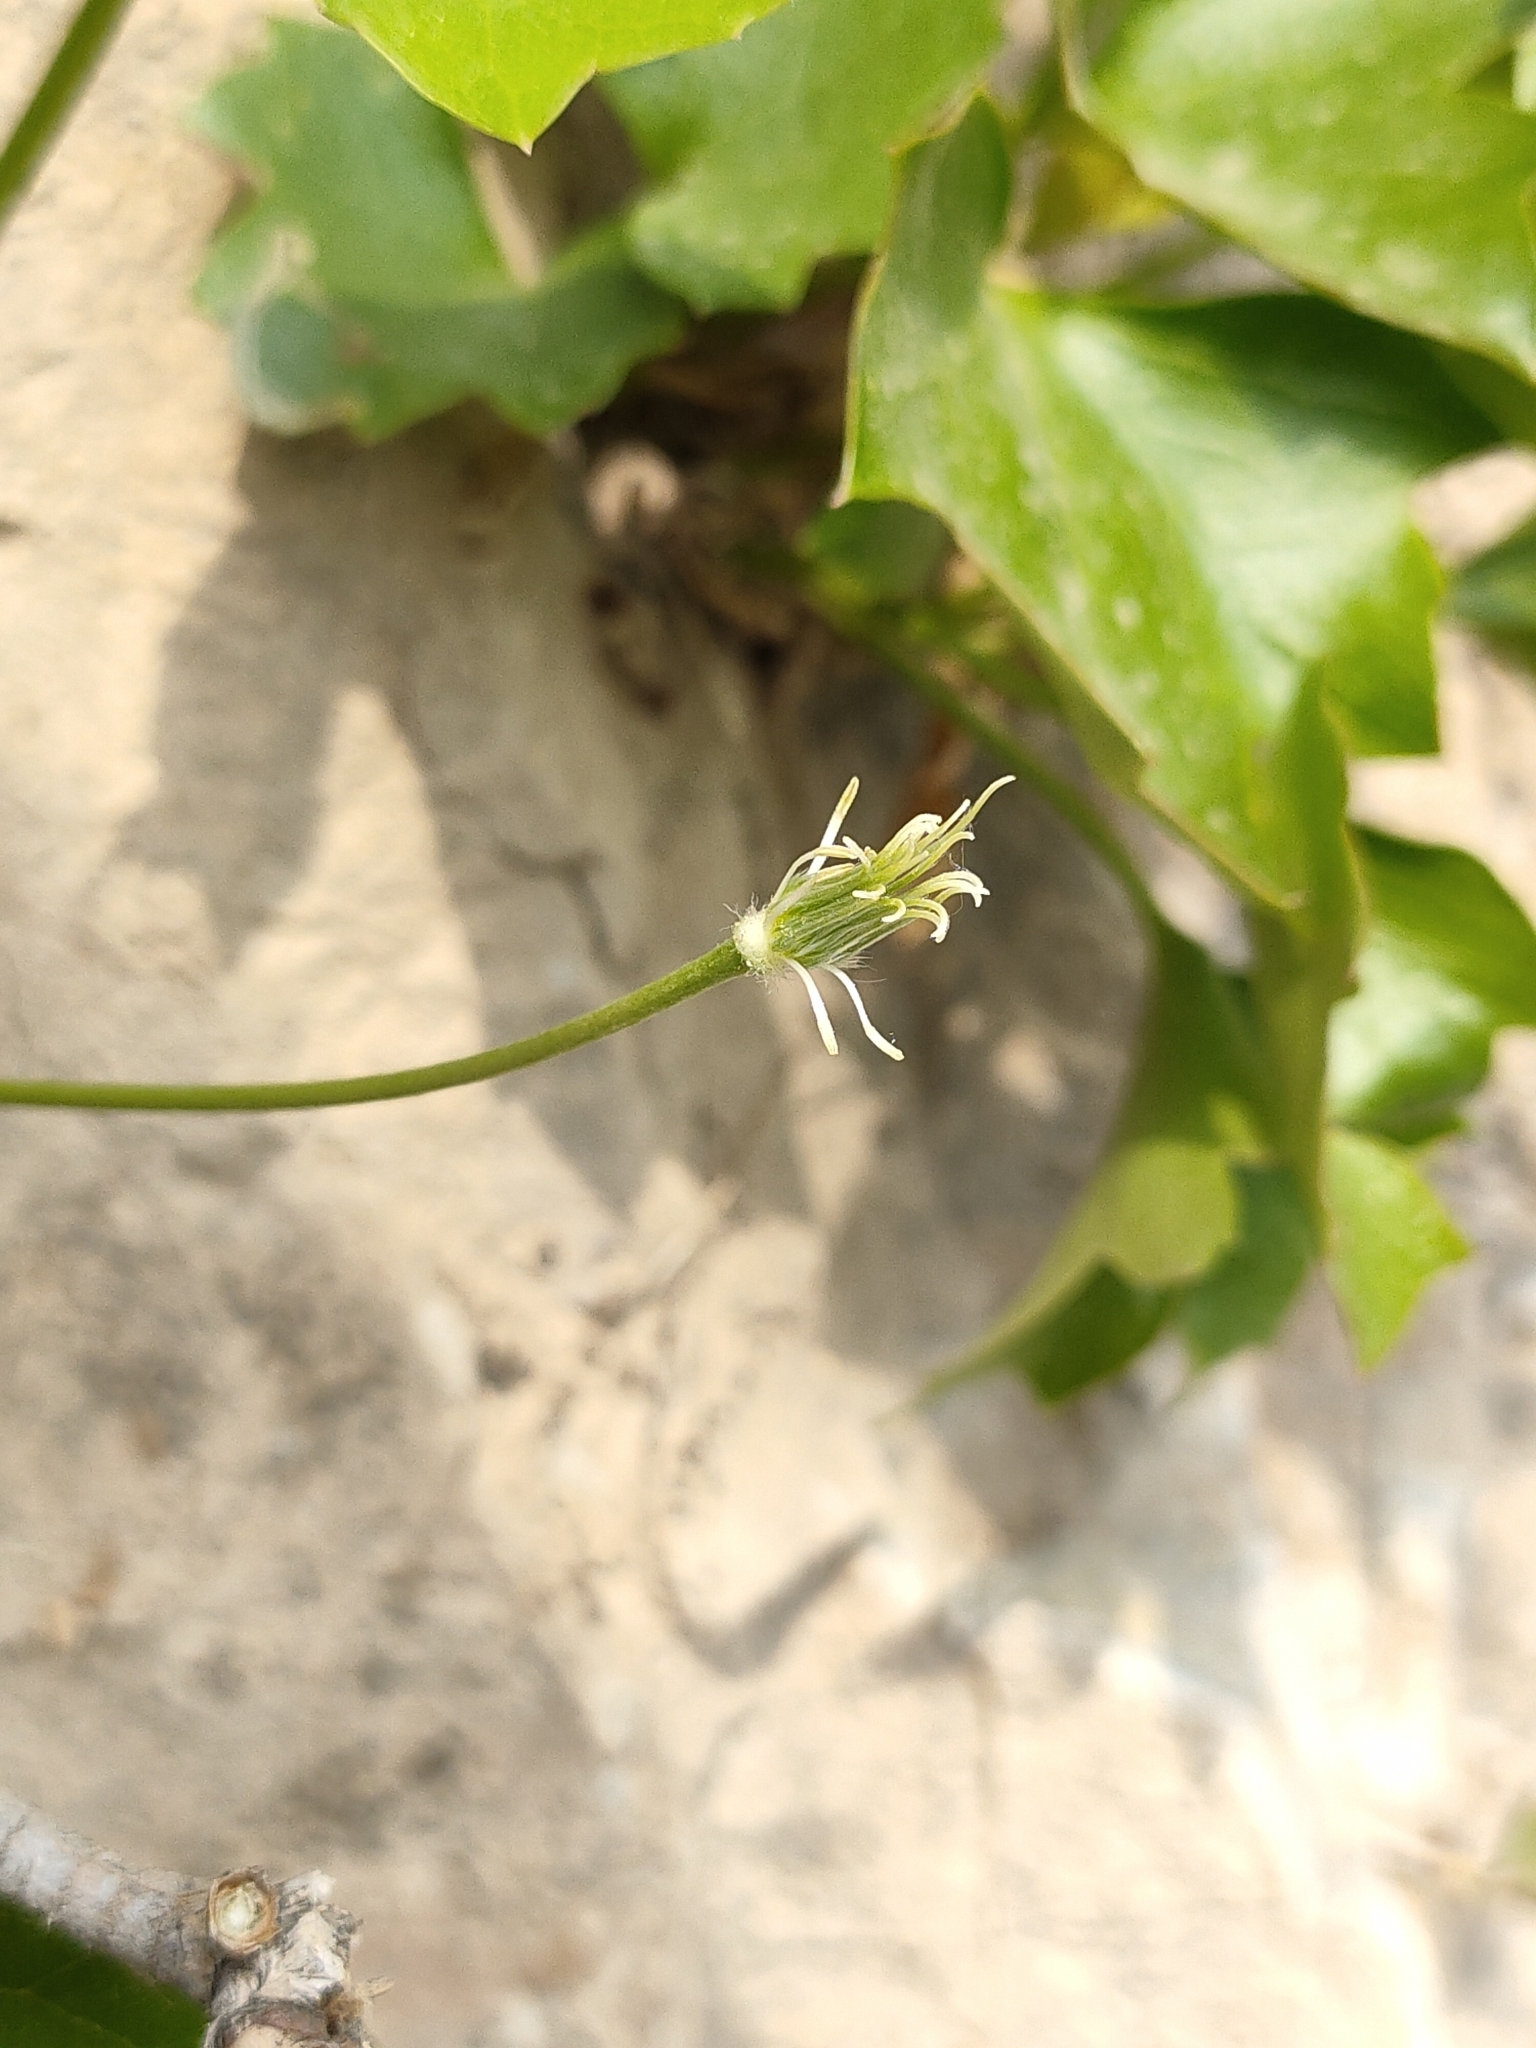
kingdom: Plantae
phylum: Tracheophyta
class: Magnoliopsida
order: Ranunculales
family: Ranunculaceae
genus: Clematis
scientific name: Clematis acerifolia
